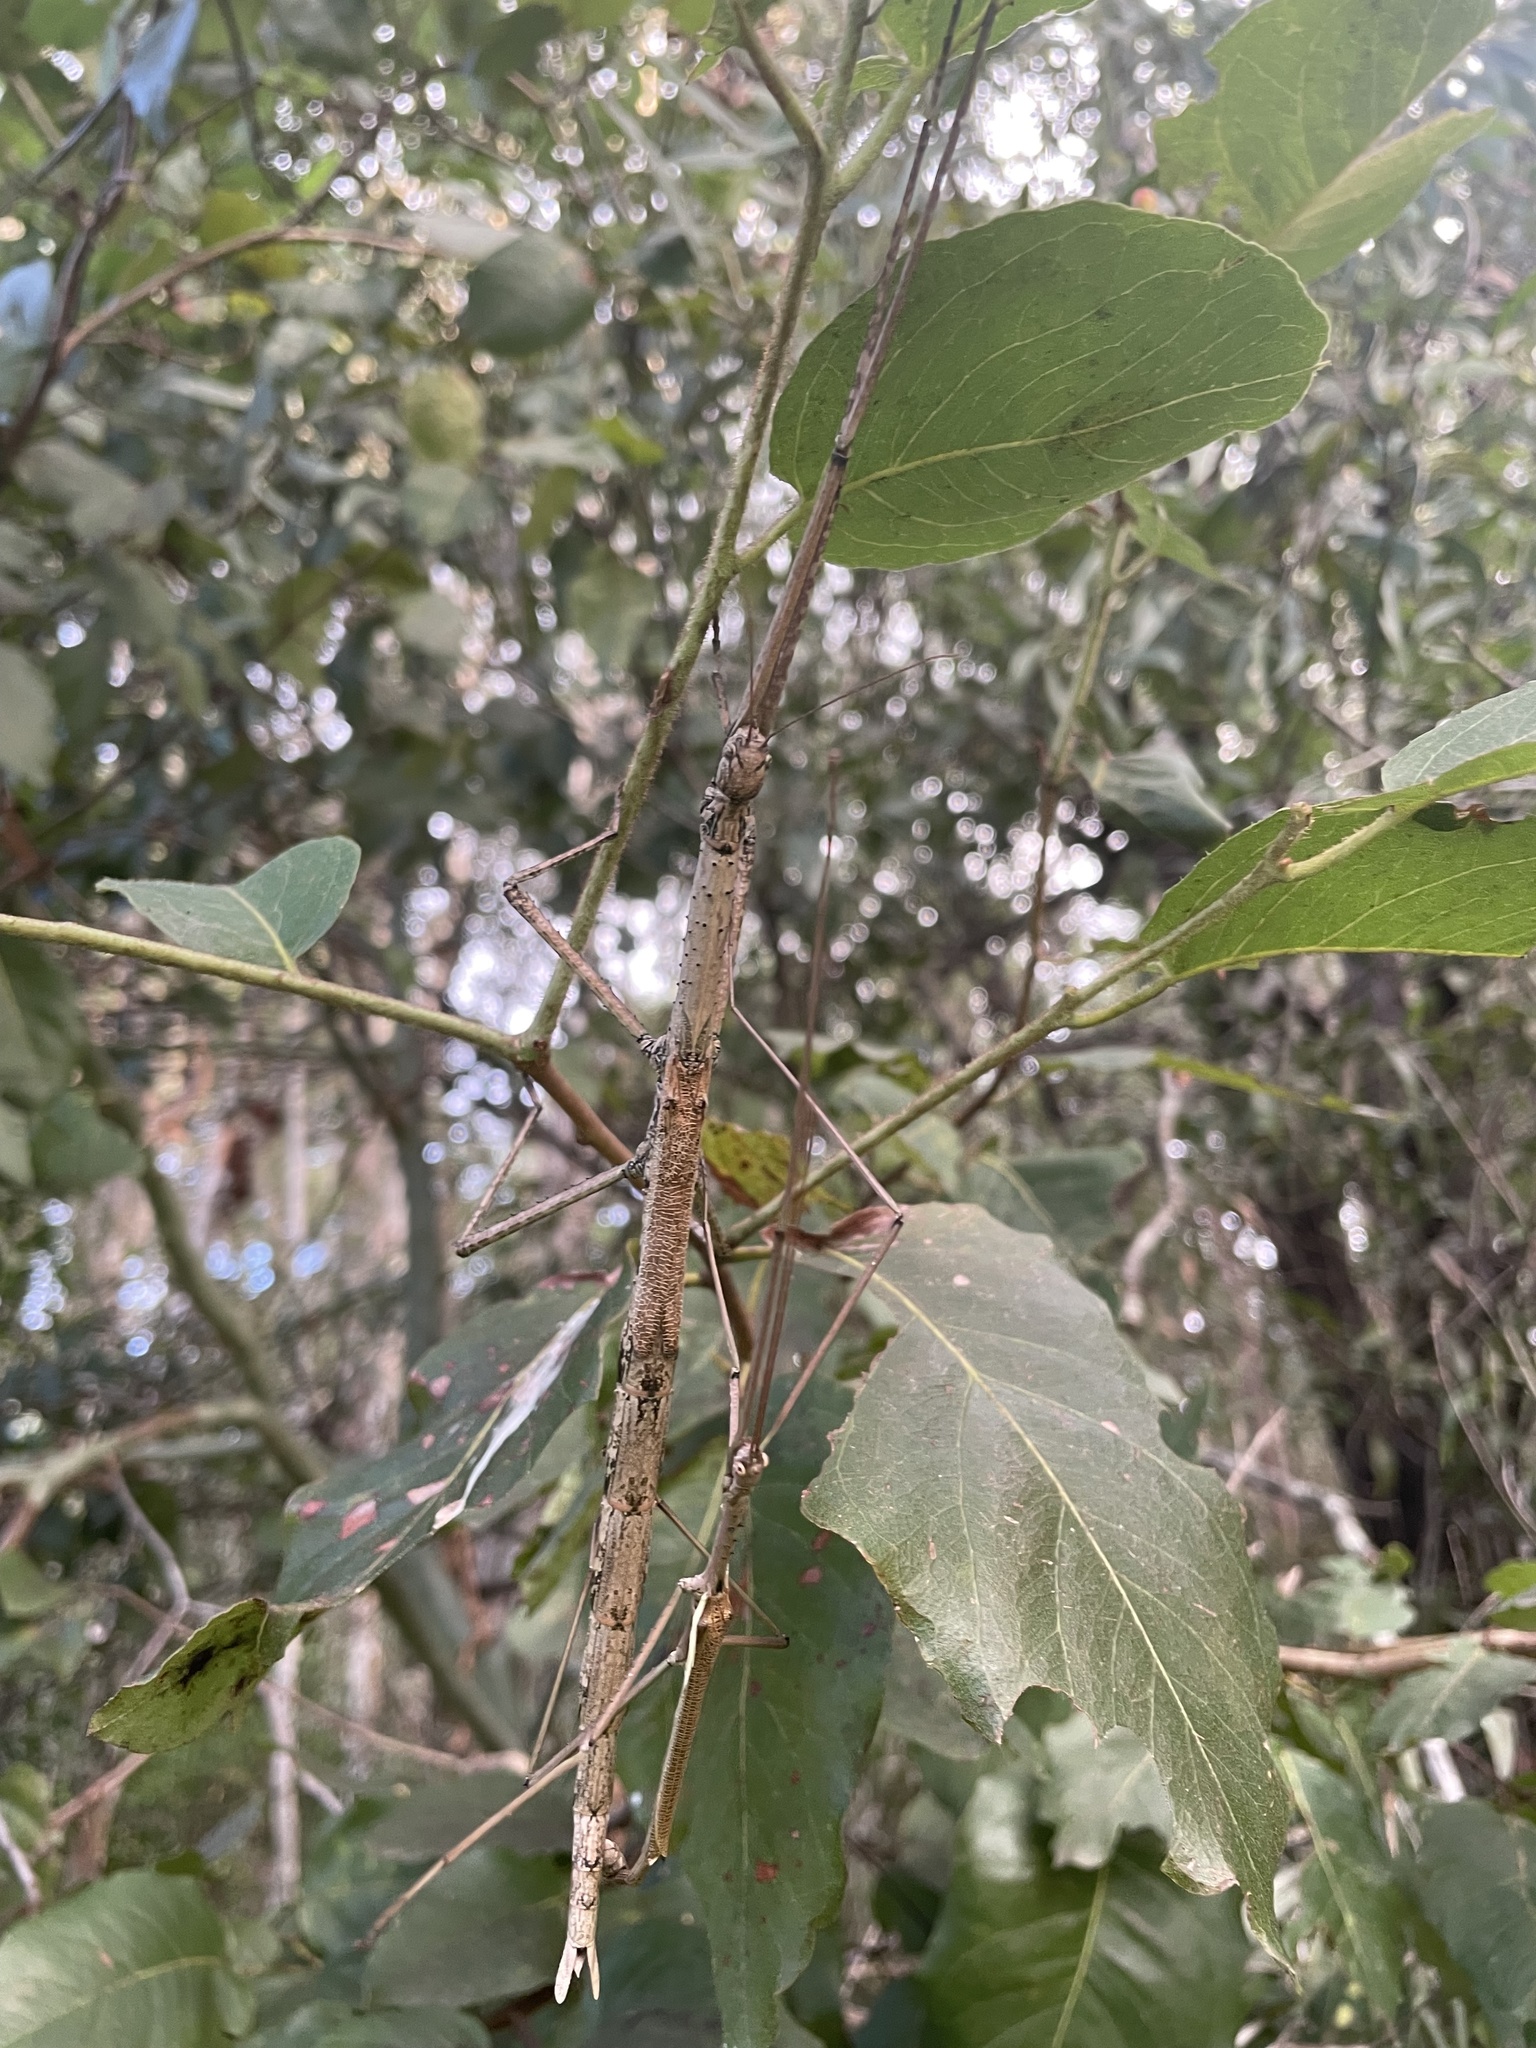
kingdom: Animalia
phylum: Arthropoda
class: Insecta
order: Phasmida
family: Phasmatidae
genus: Anchiale
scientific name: Anchiale austrotessulata
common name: Tessellated stick-insect
